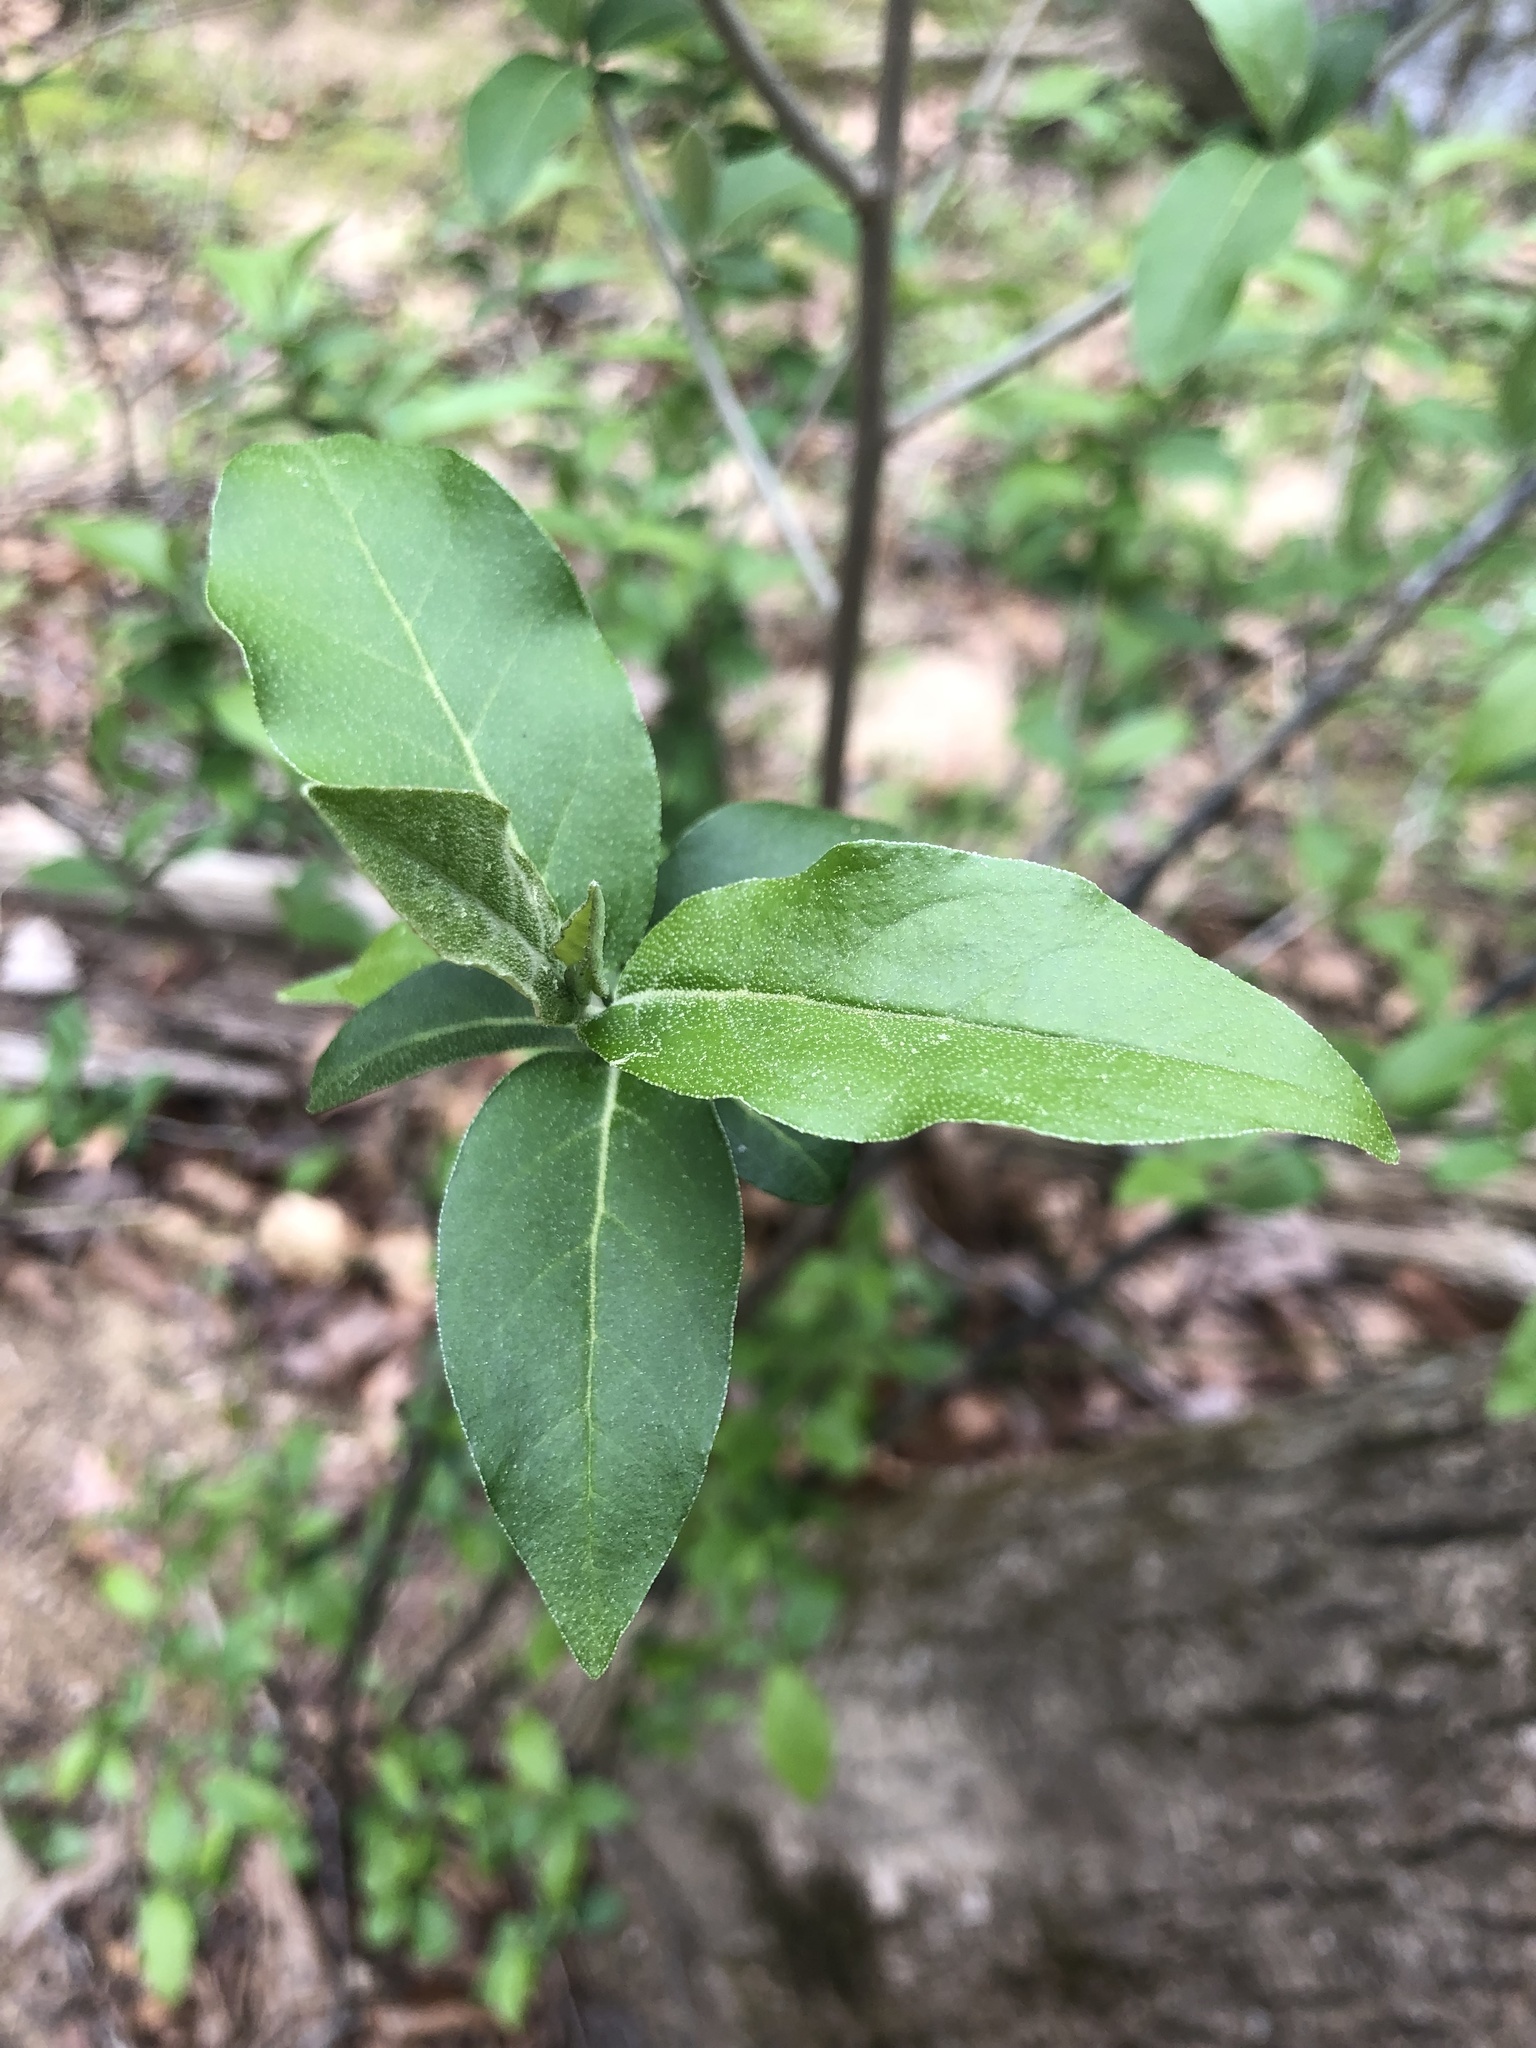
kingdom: Plantae
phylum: Tracheophyta
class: Magnoliopsida
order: Rosales
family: Elaeagnaceae
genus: Elaeagnus
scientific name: Elaeagnus umbellata
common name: Autumn olive
